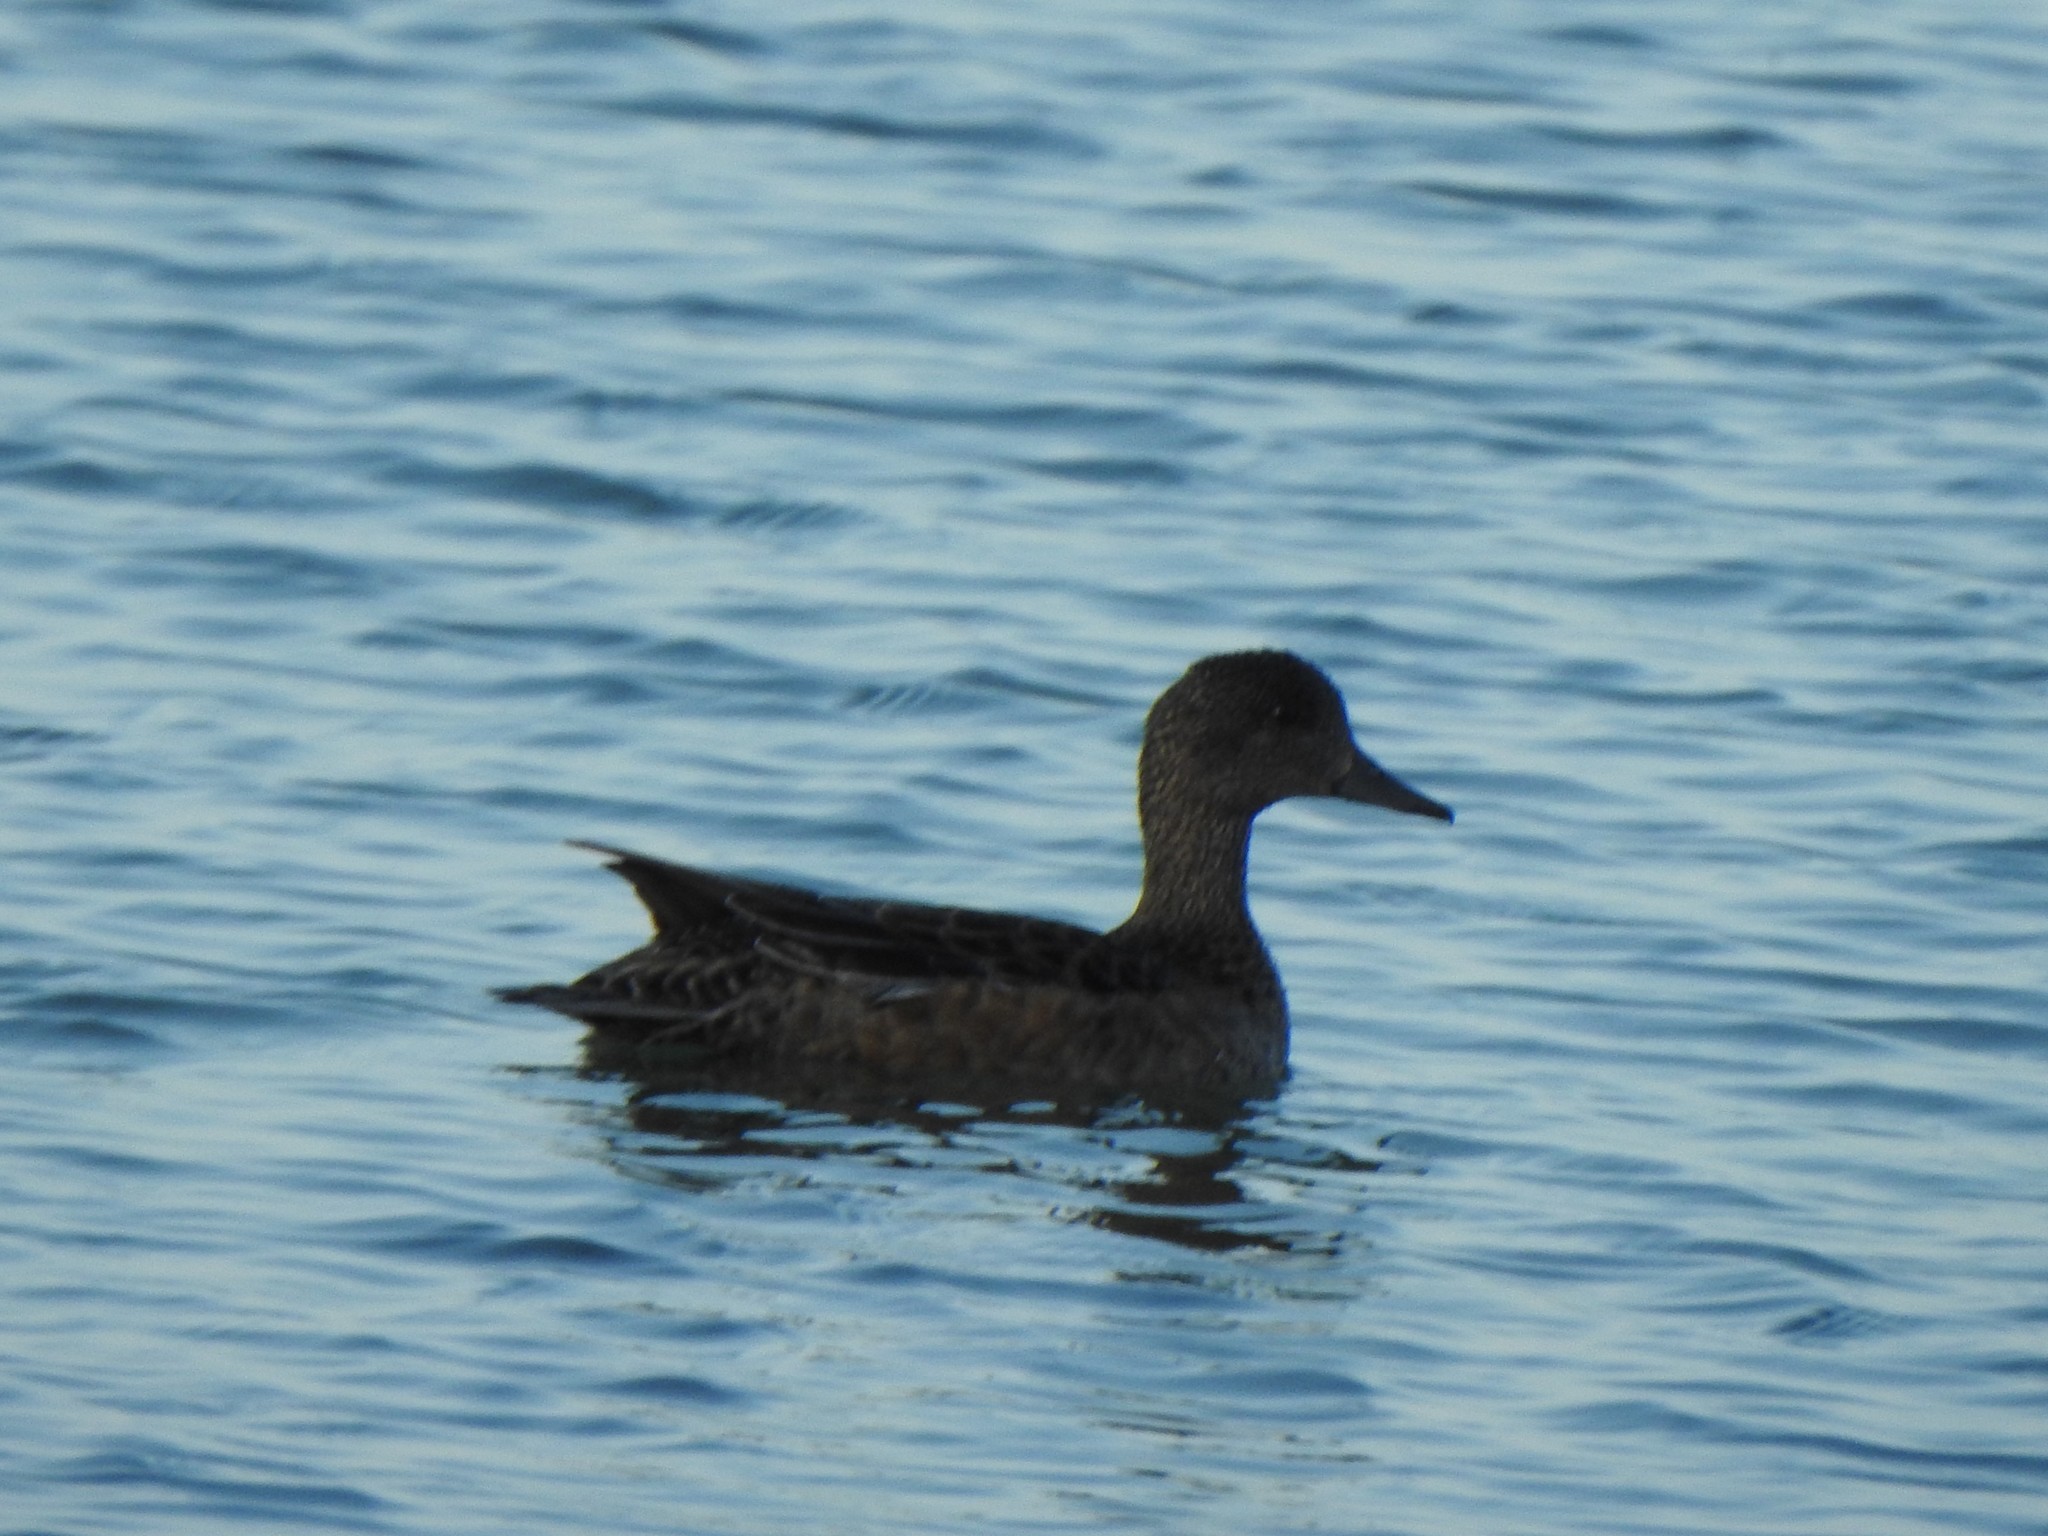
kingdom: Animalia
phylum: Chordata
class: Aves
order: Anseriformes
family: Anatidae
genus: Mareca
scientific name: Mareca strepera
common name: Gadwall
